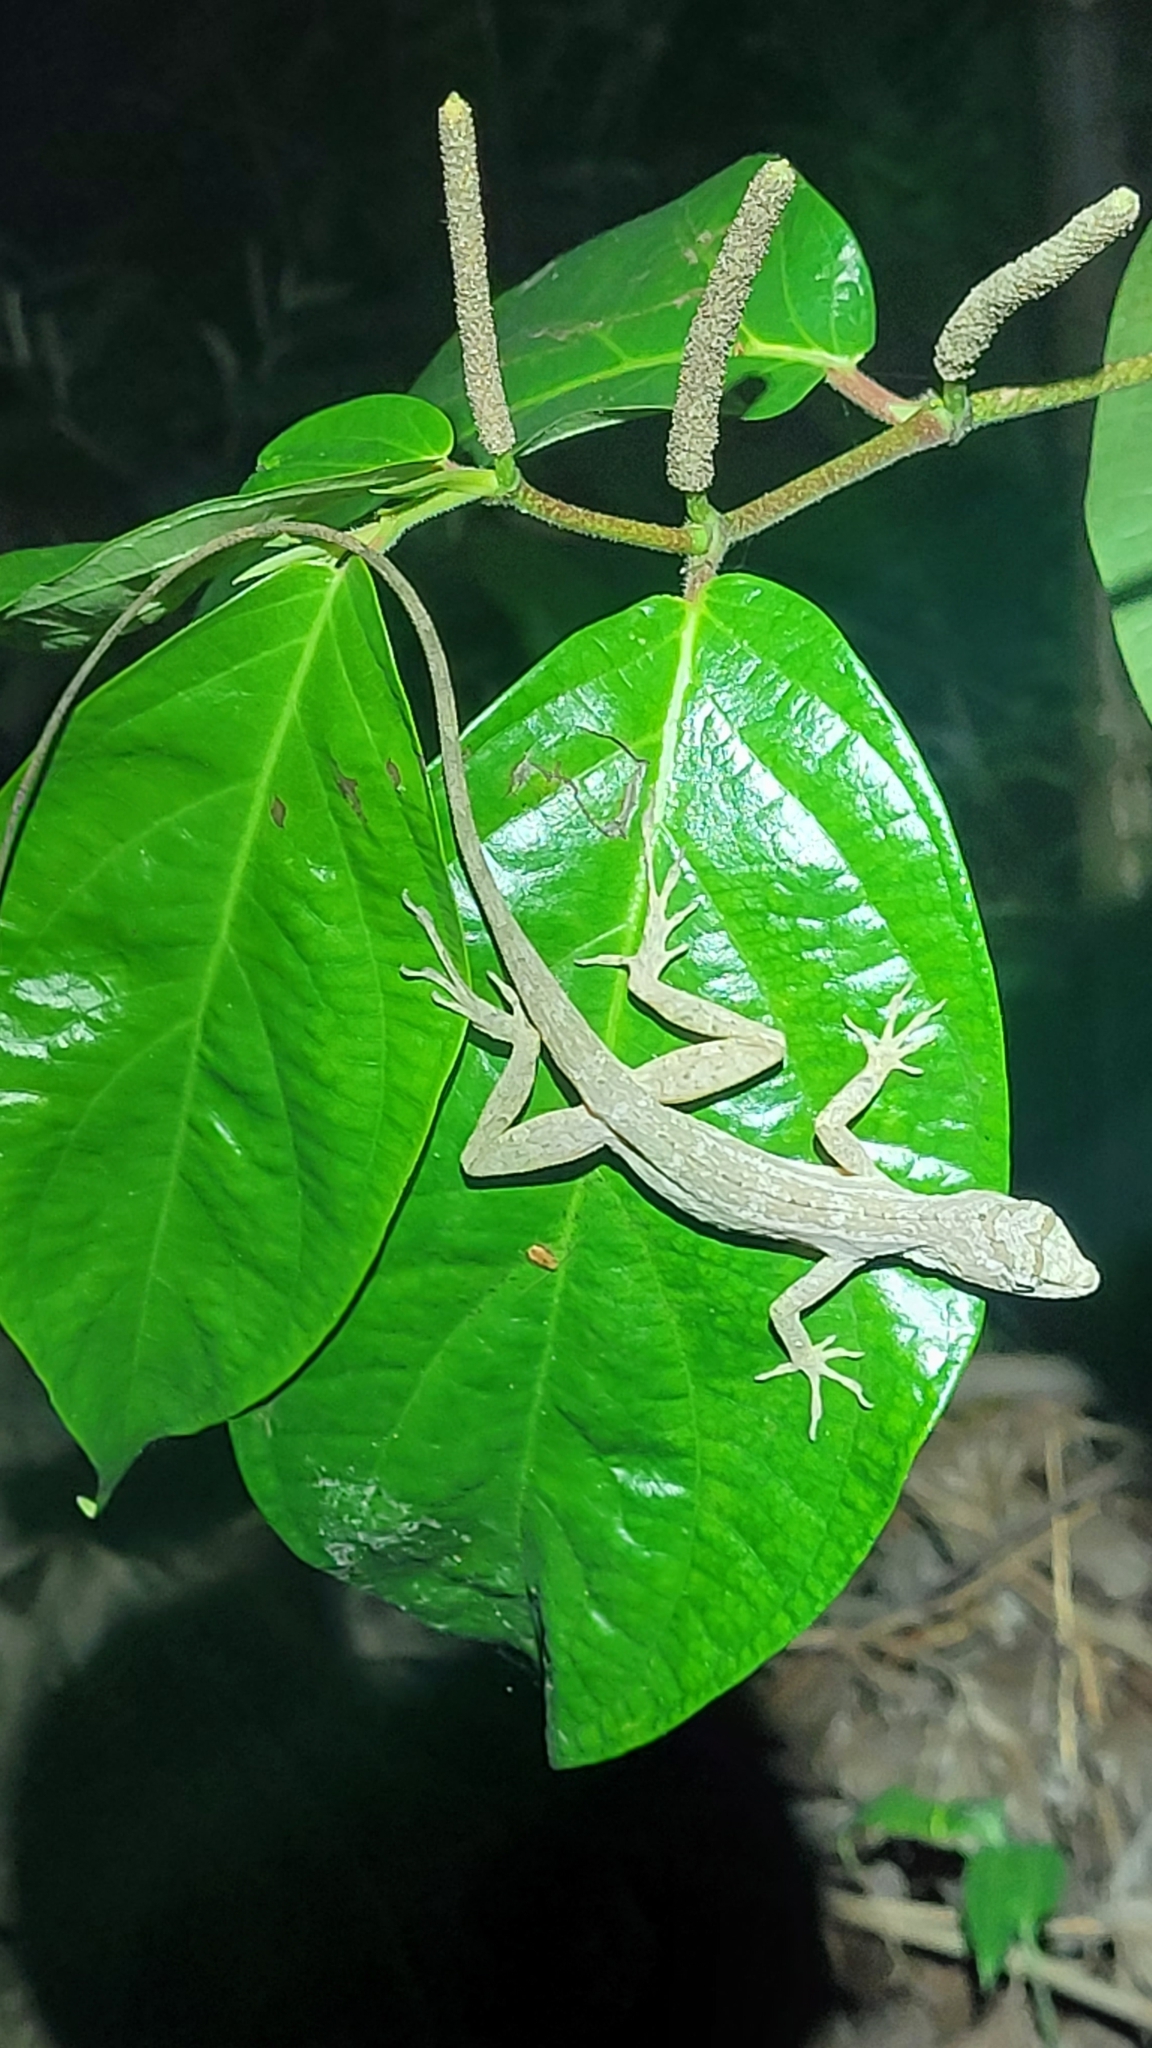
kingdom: Animalia
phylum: Chordata
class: Squamata
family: Dactyloidae
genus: Anolis
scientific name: Anolis bicaorum
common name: Bay islands anole
